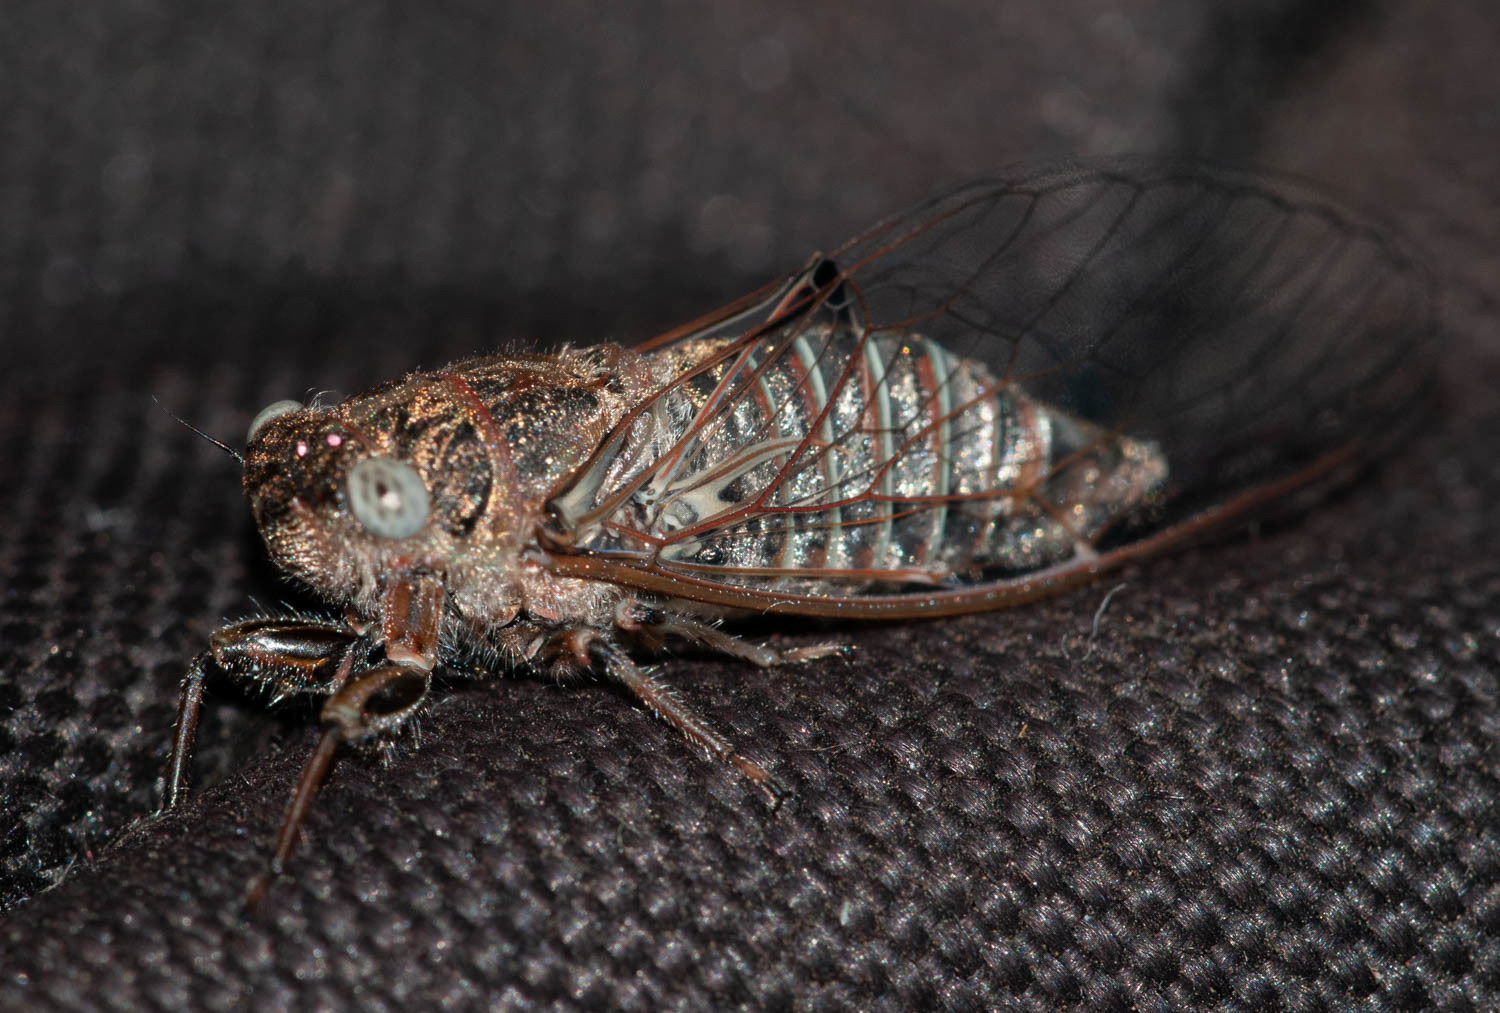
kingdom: Animalia
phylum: Arthropoda
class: Insecta
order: Hemiptera
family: Cicadidae
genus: Atrapsalta
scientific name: Atrapsalta corticina
